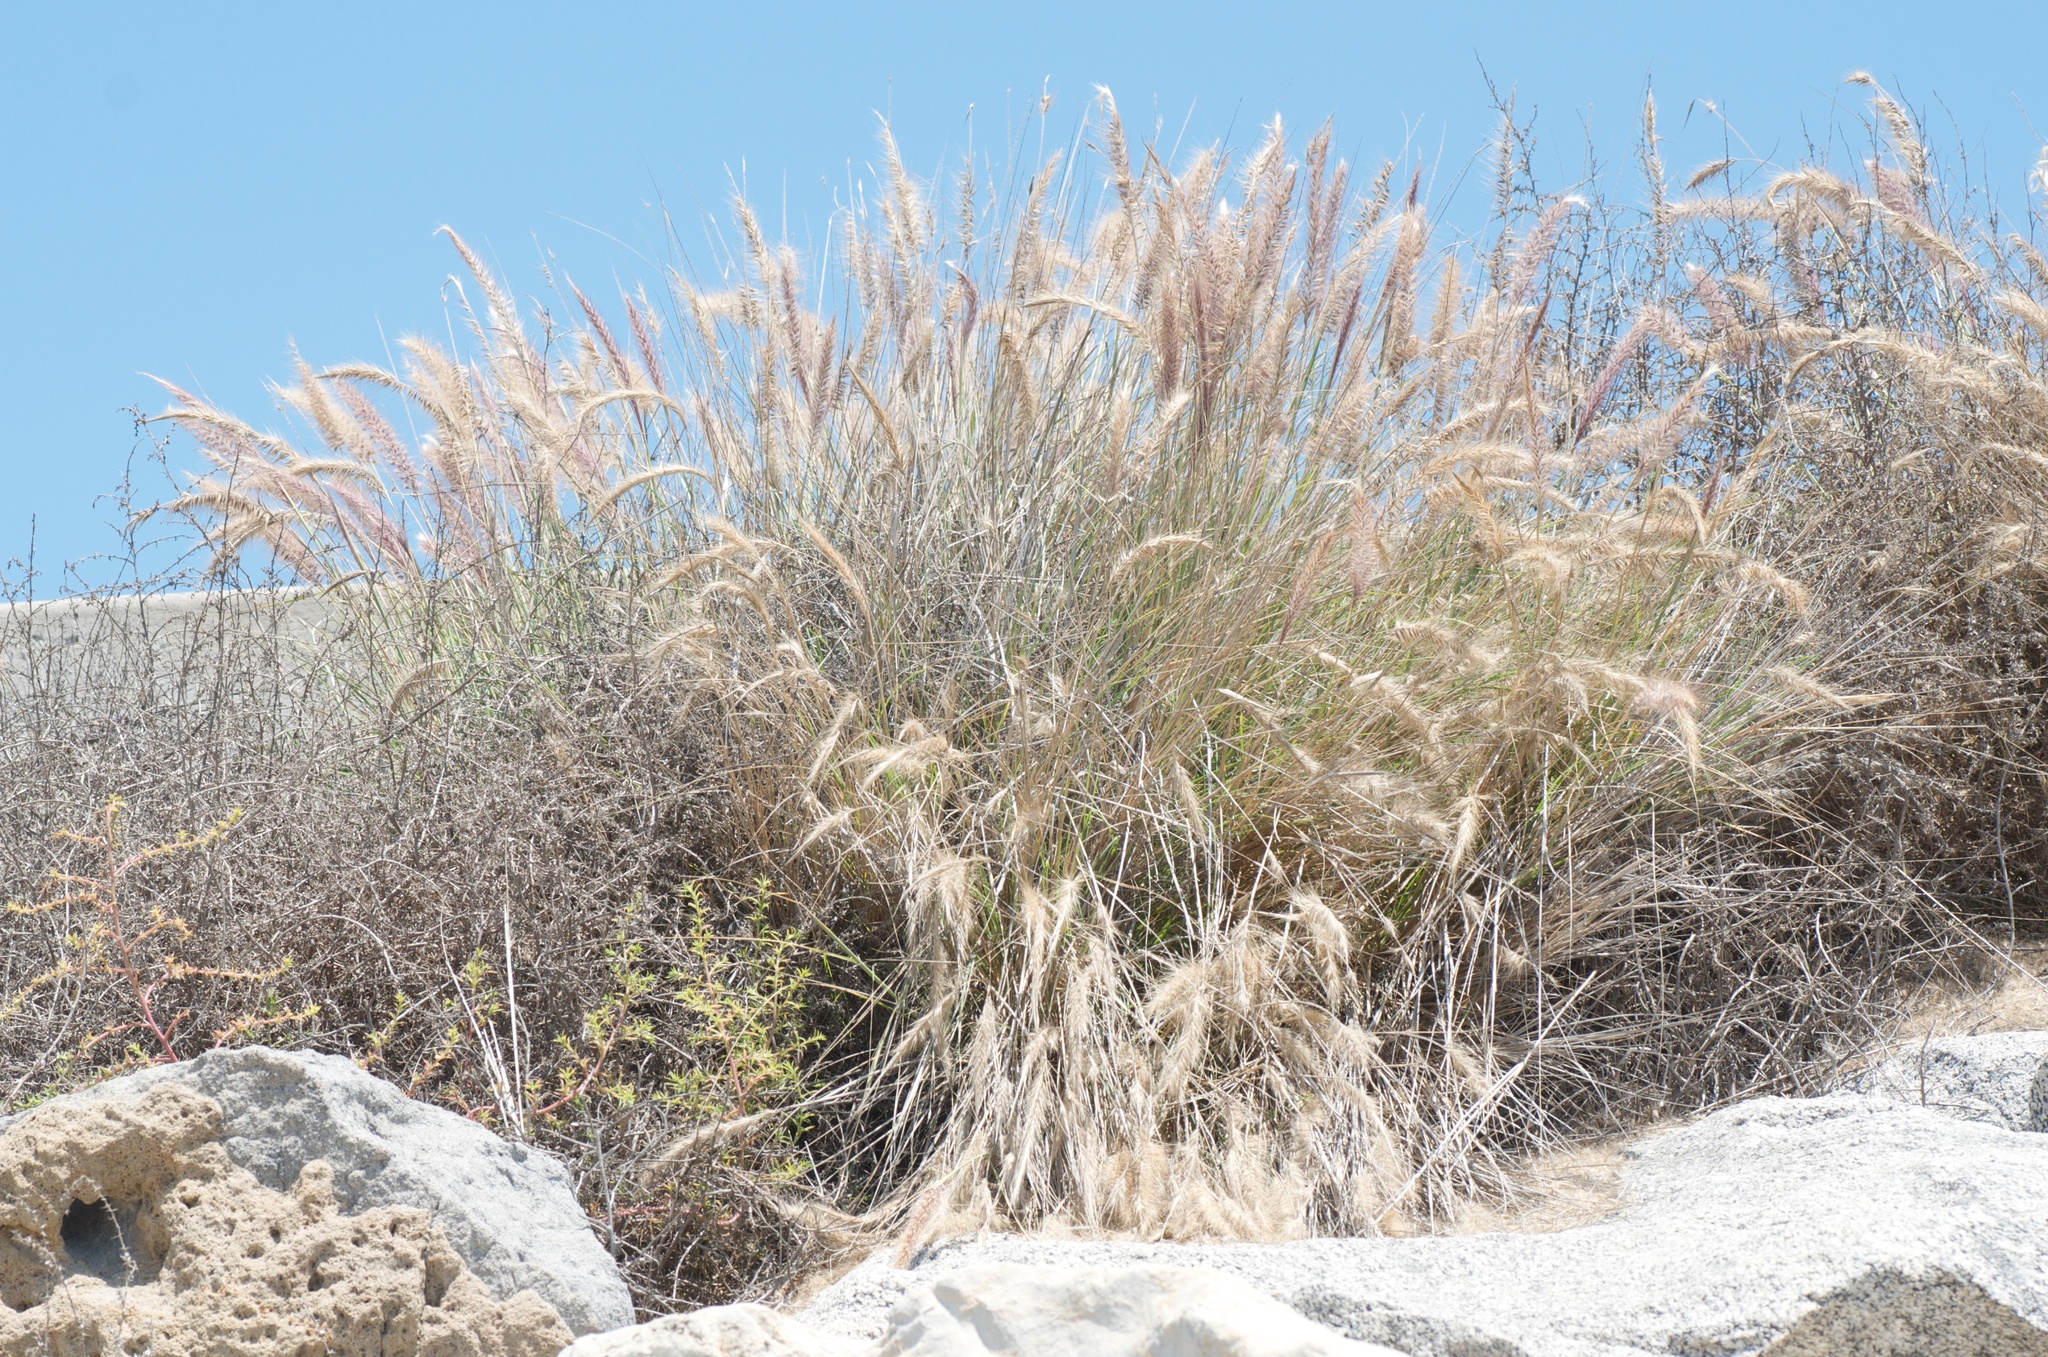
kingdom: Plantae
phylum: Tracheophyta
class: Liliopsida
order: Poales
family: Poaceae
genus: Cenchrus
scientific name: Cenchrus setaceus
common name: Crimson fountaingrass
